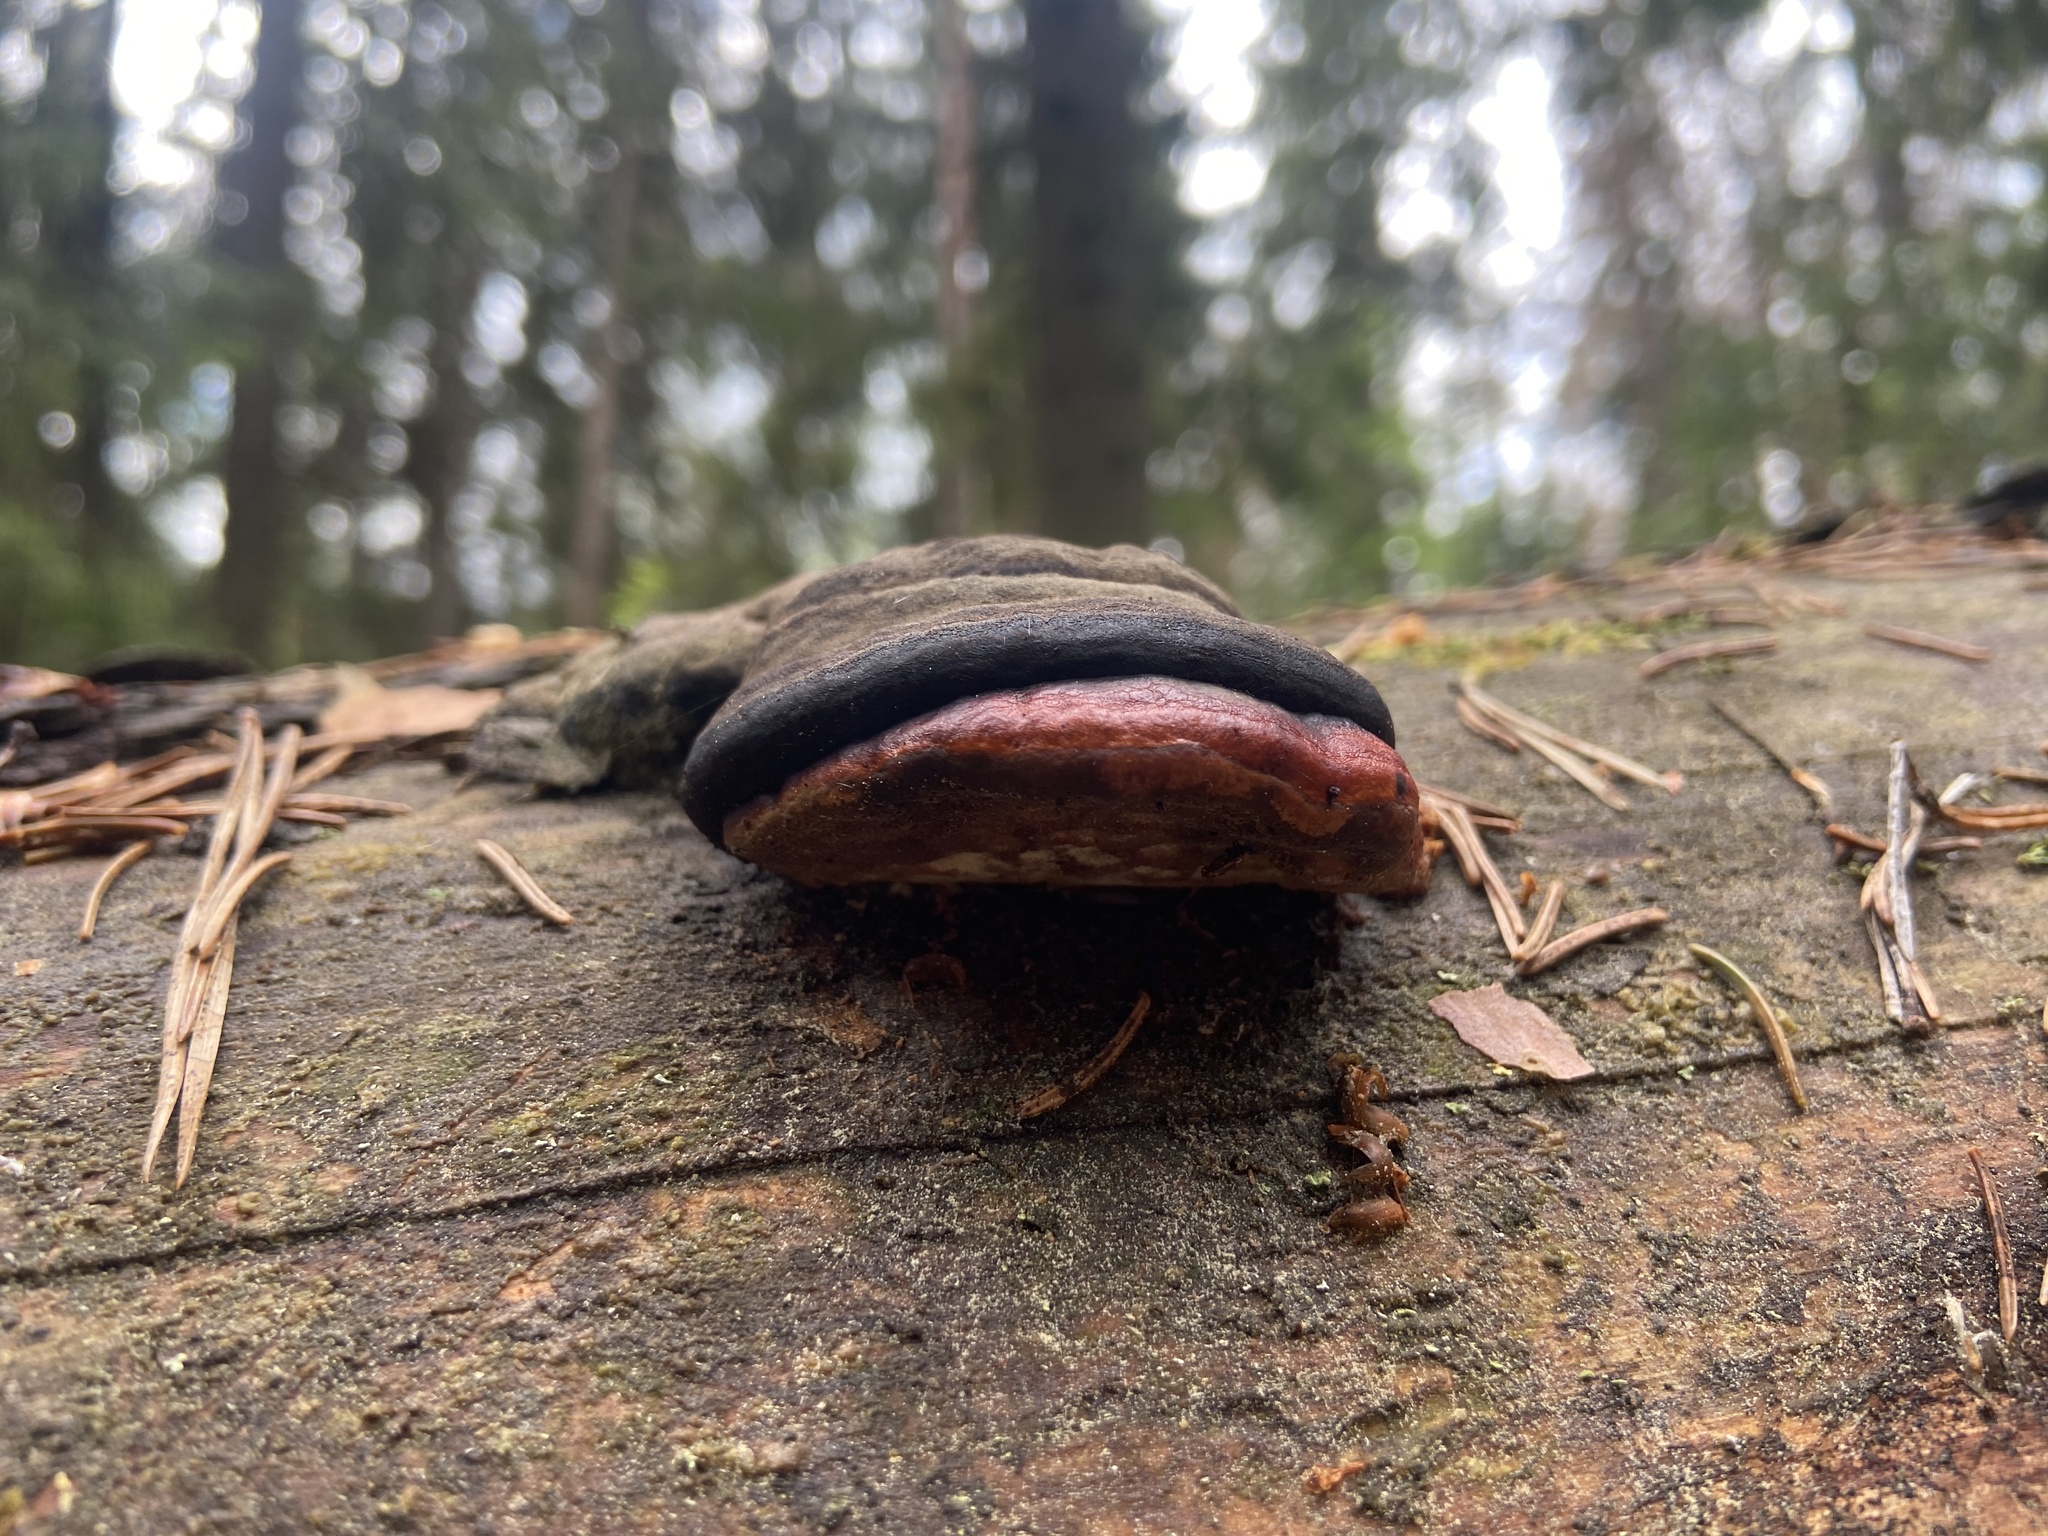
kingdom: Fungi
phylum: Basidiomycota
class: Agaricomycetes
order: Polyporales
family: Fomitopsidaceae
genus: Fomitopsis
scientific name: Fomitopsis pinicola
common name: Red-belted bracket
